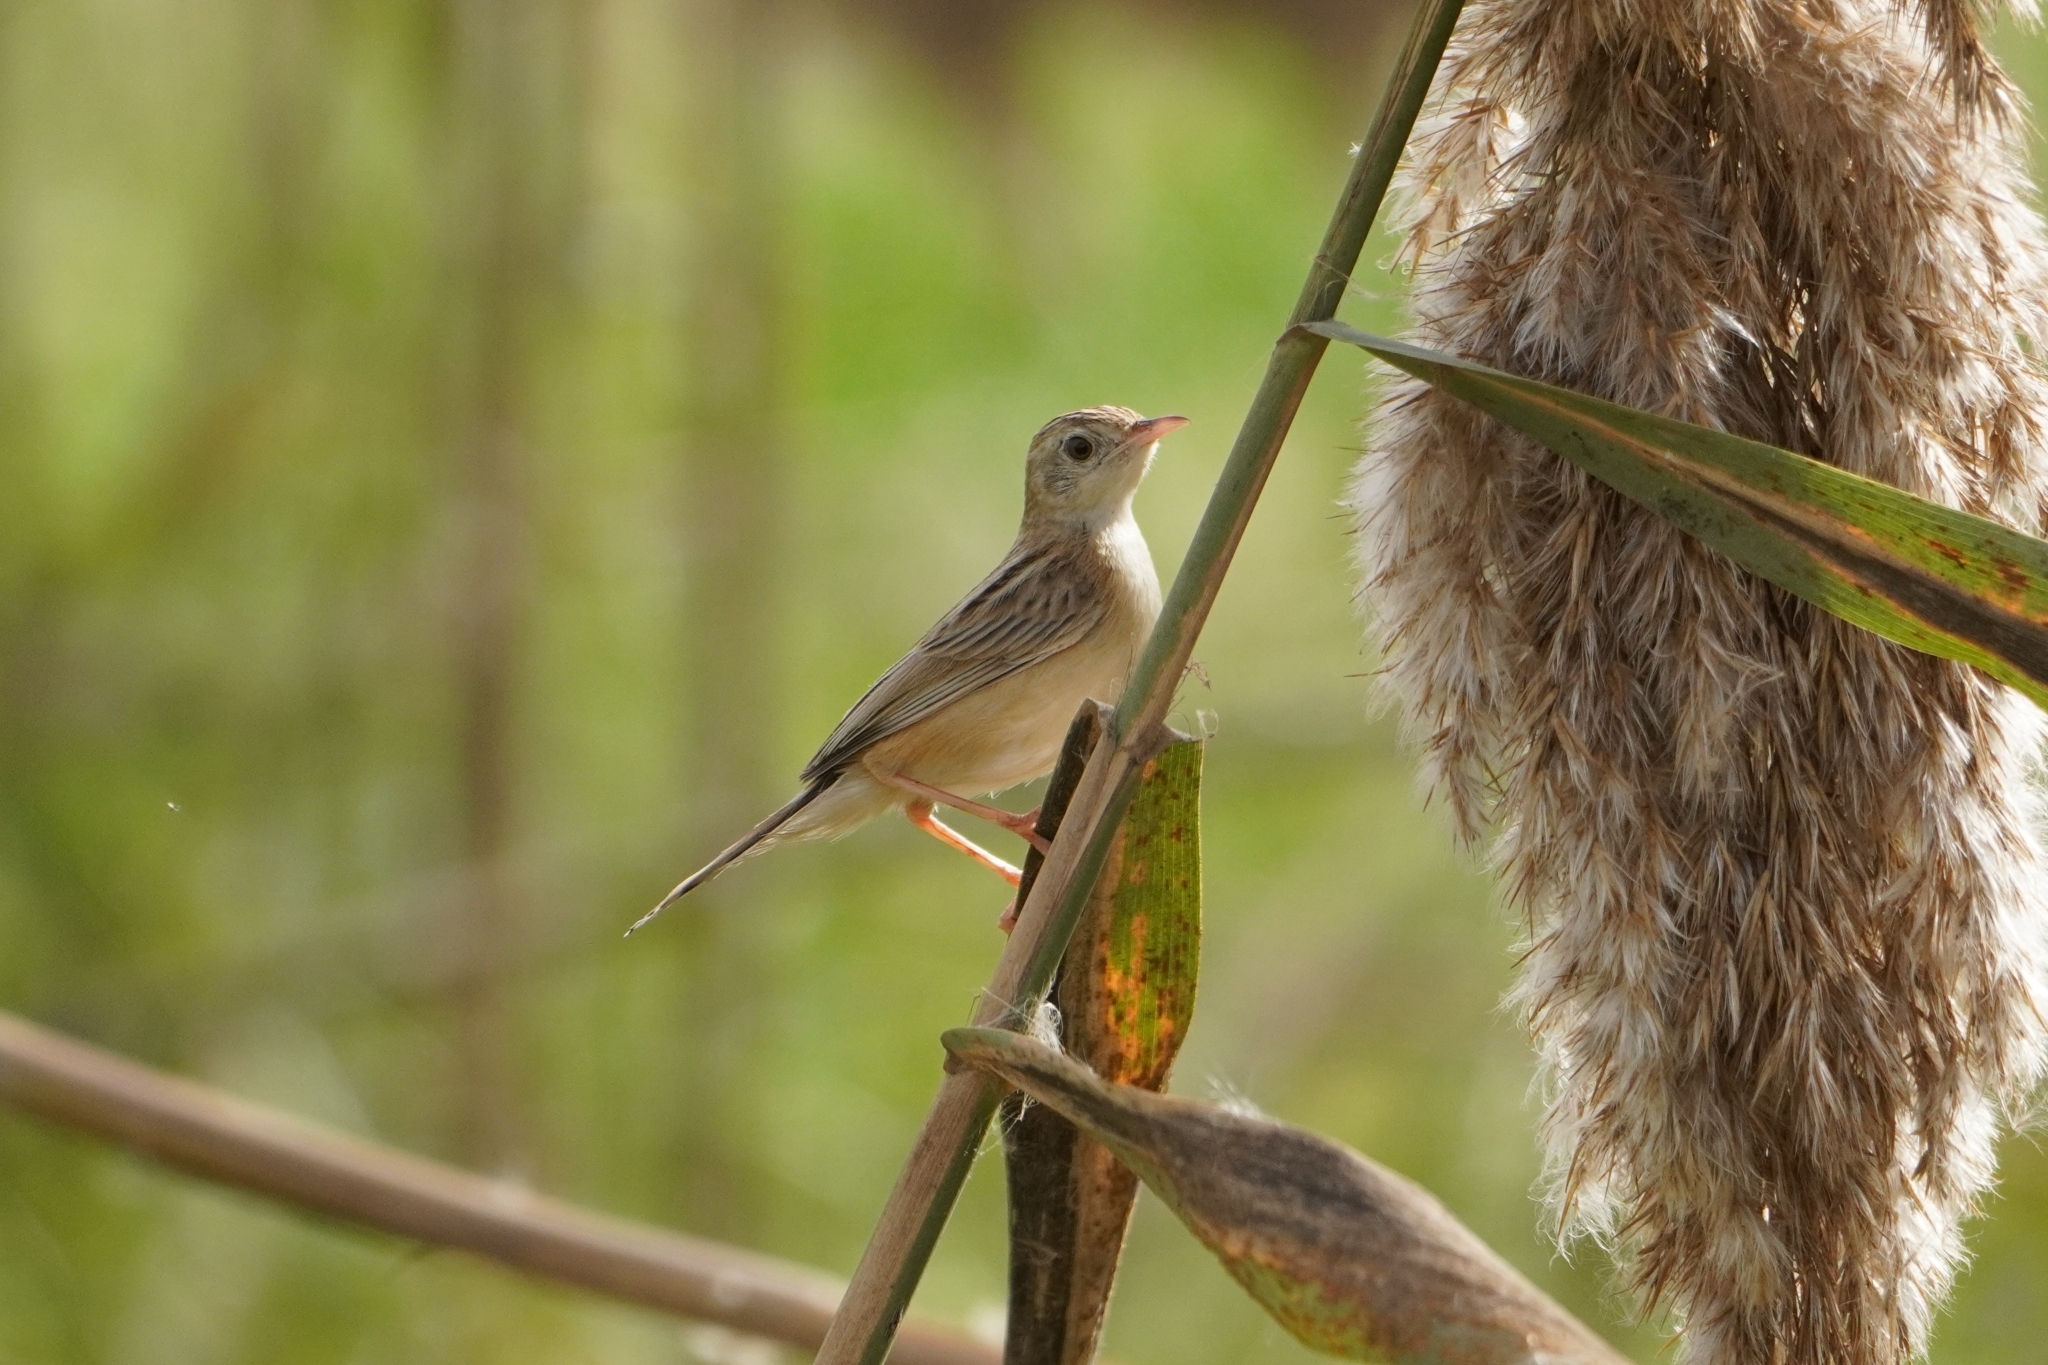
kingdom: Animalia
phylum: Chordata
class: Aves
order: Passeriformes
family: Cisticolidae
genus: Cisticola
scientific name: Cisticola juncidis
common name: Zitting cisticola
